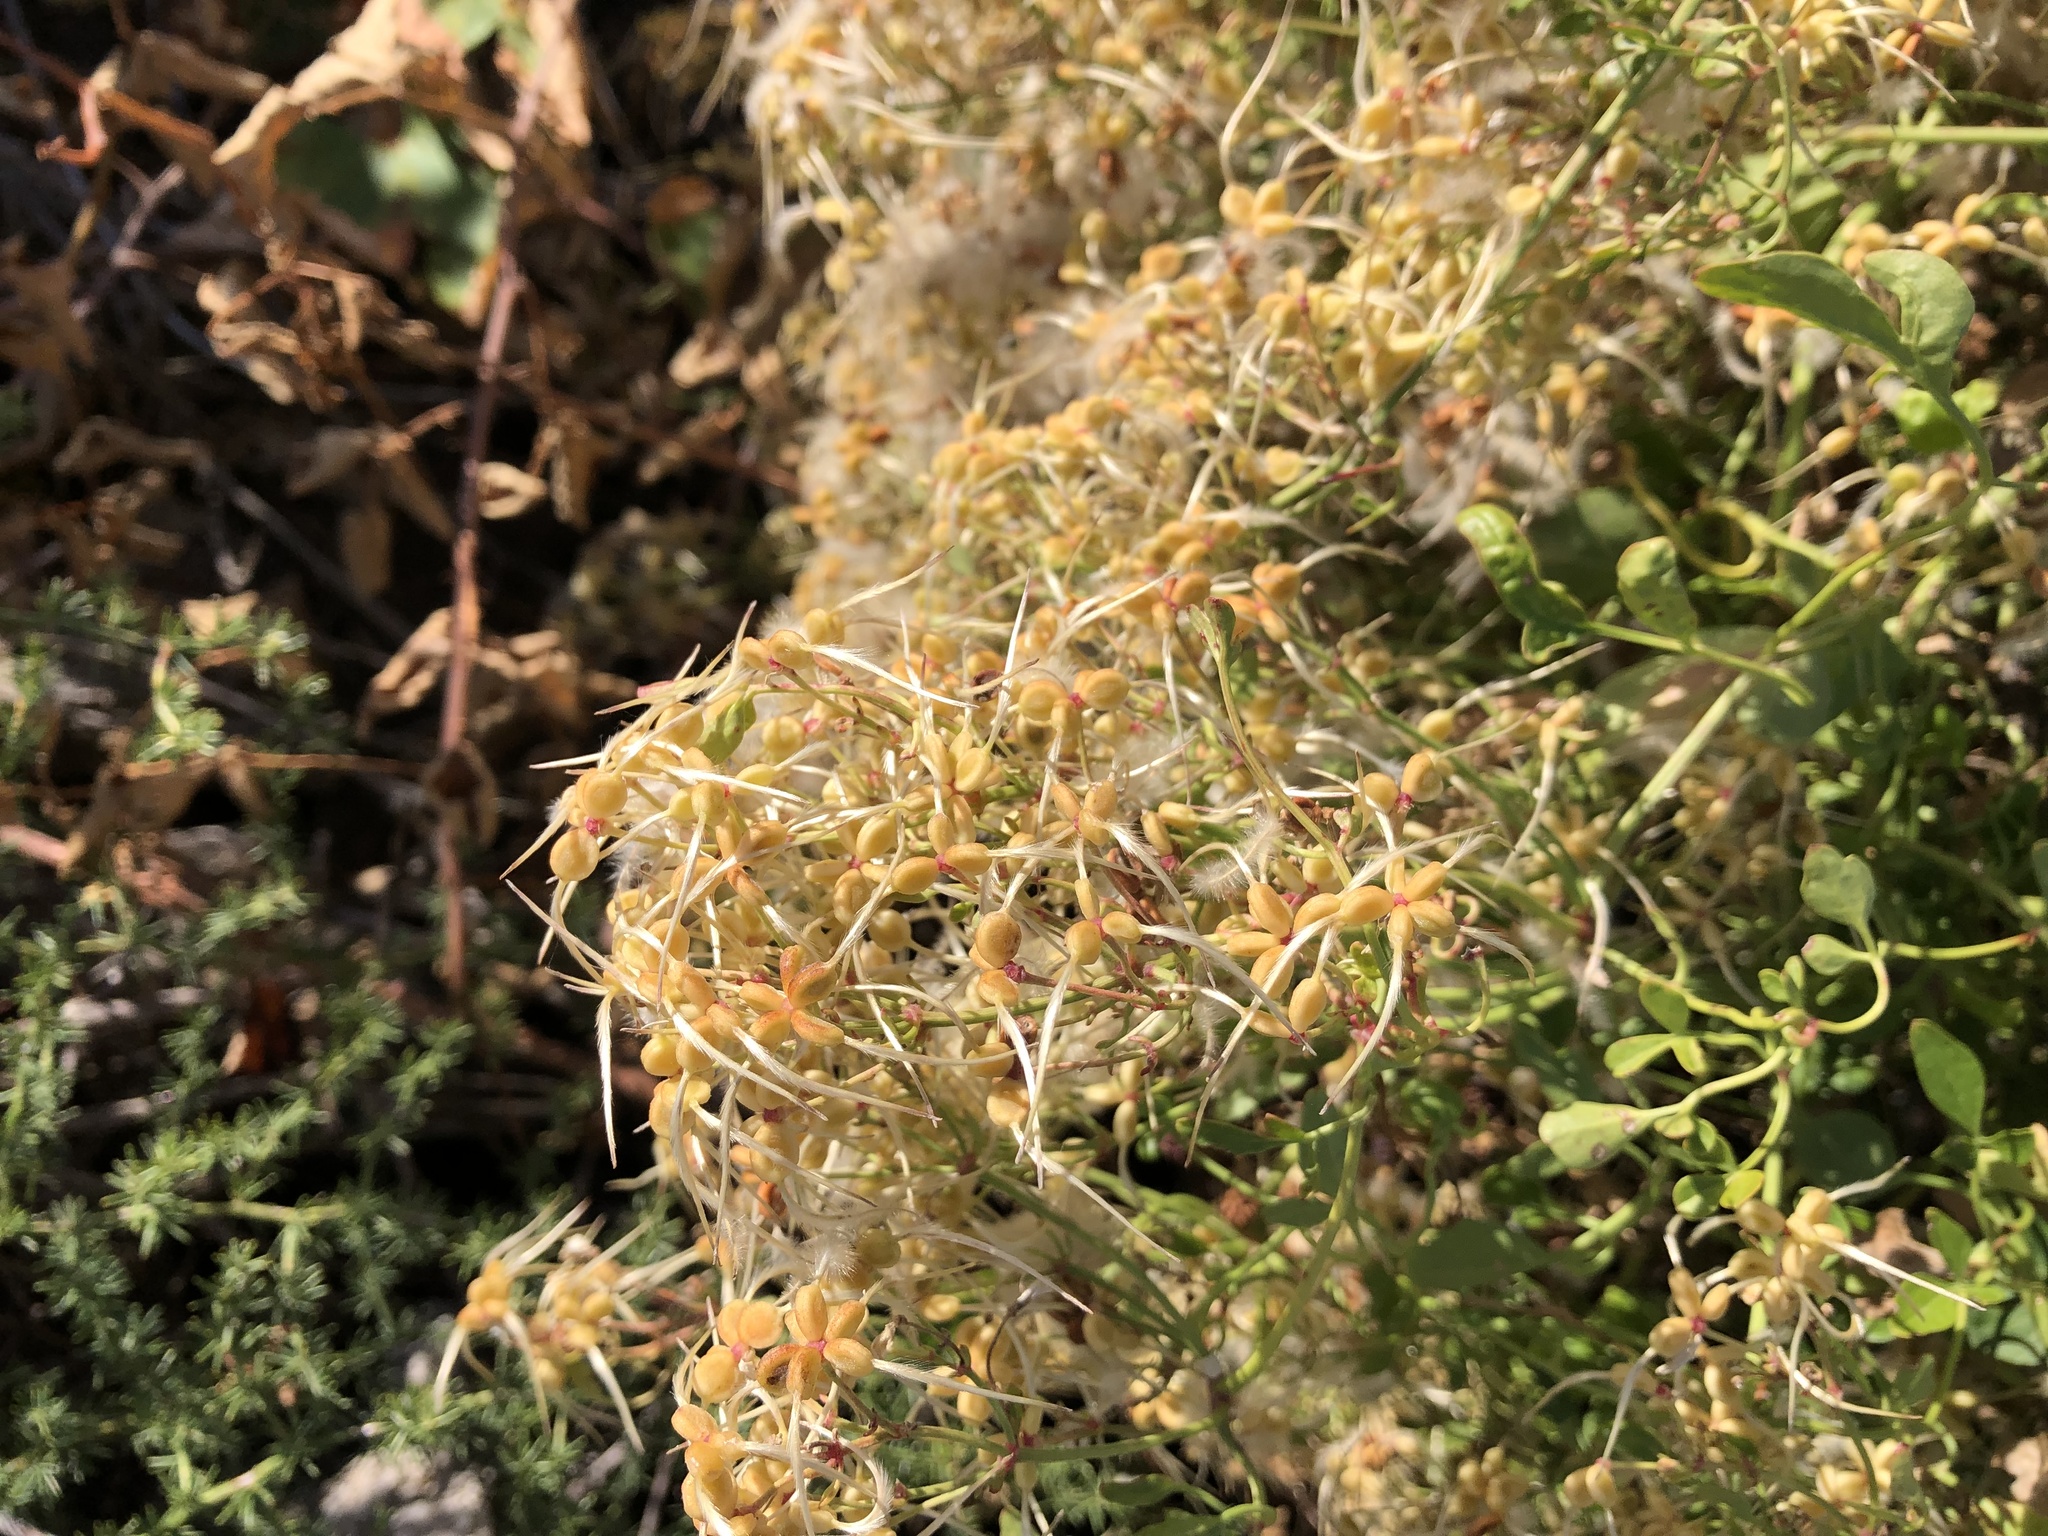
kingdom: Plantae
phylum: Tracheophyta
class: Magnoliopsida
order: Ranunculales
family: Ranunculaceae
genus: Clematis
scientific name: Clematis flammula
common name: Virgin's-bower
